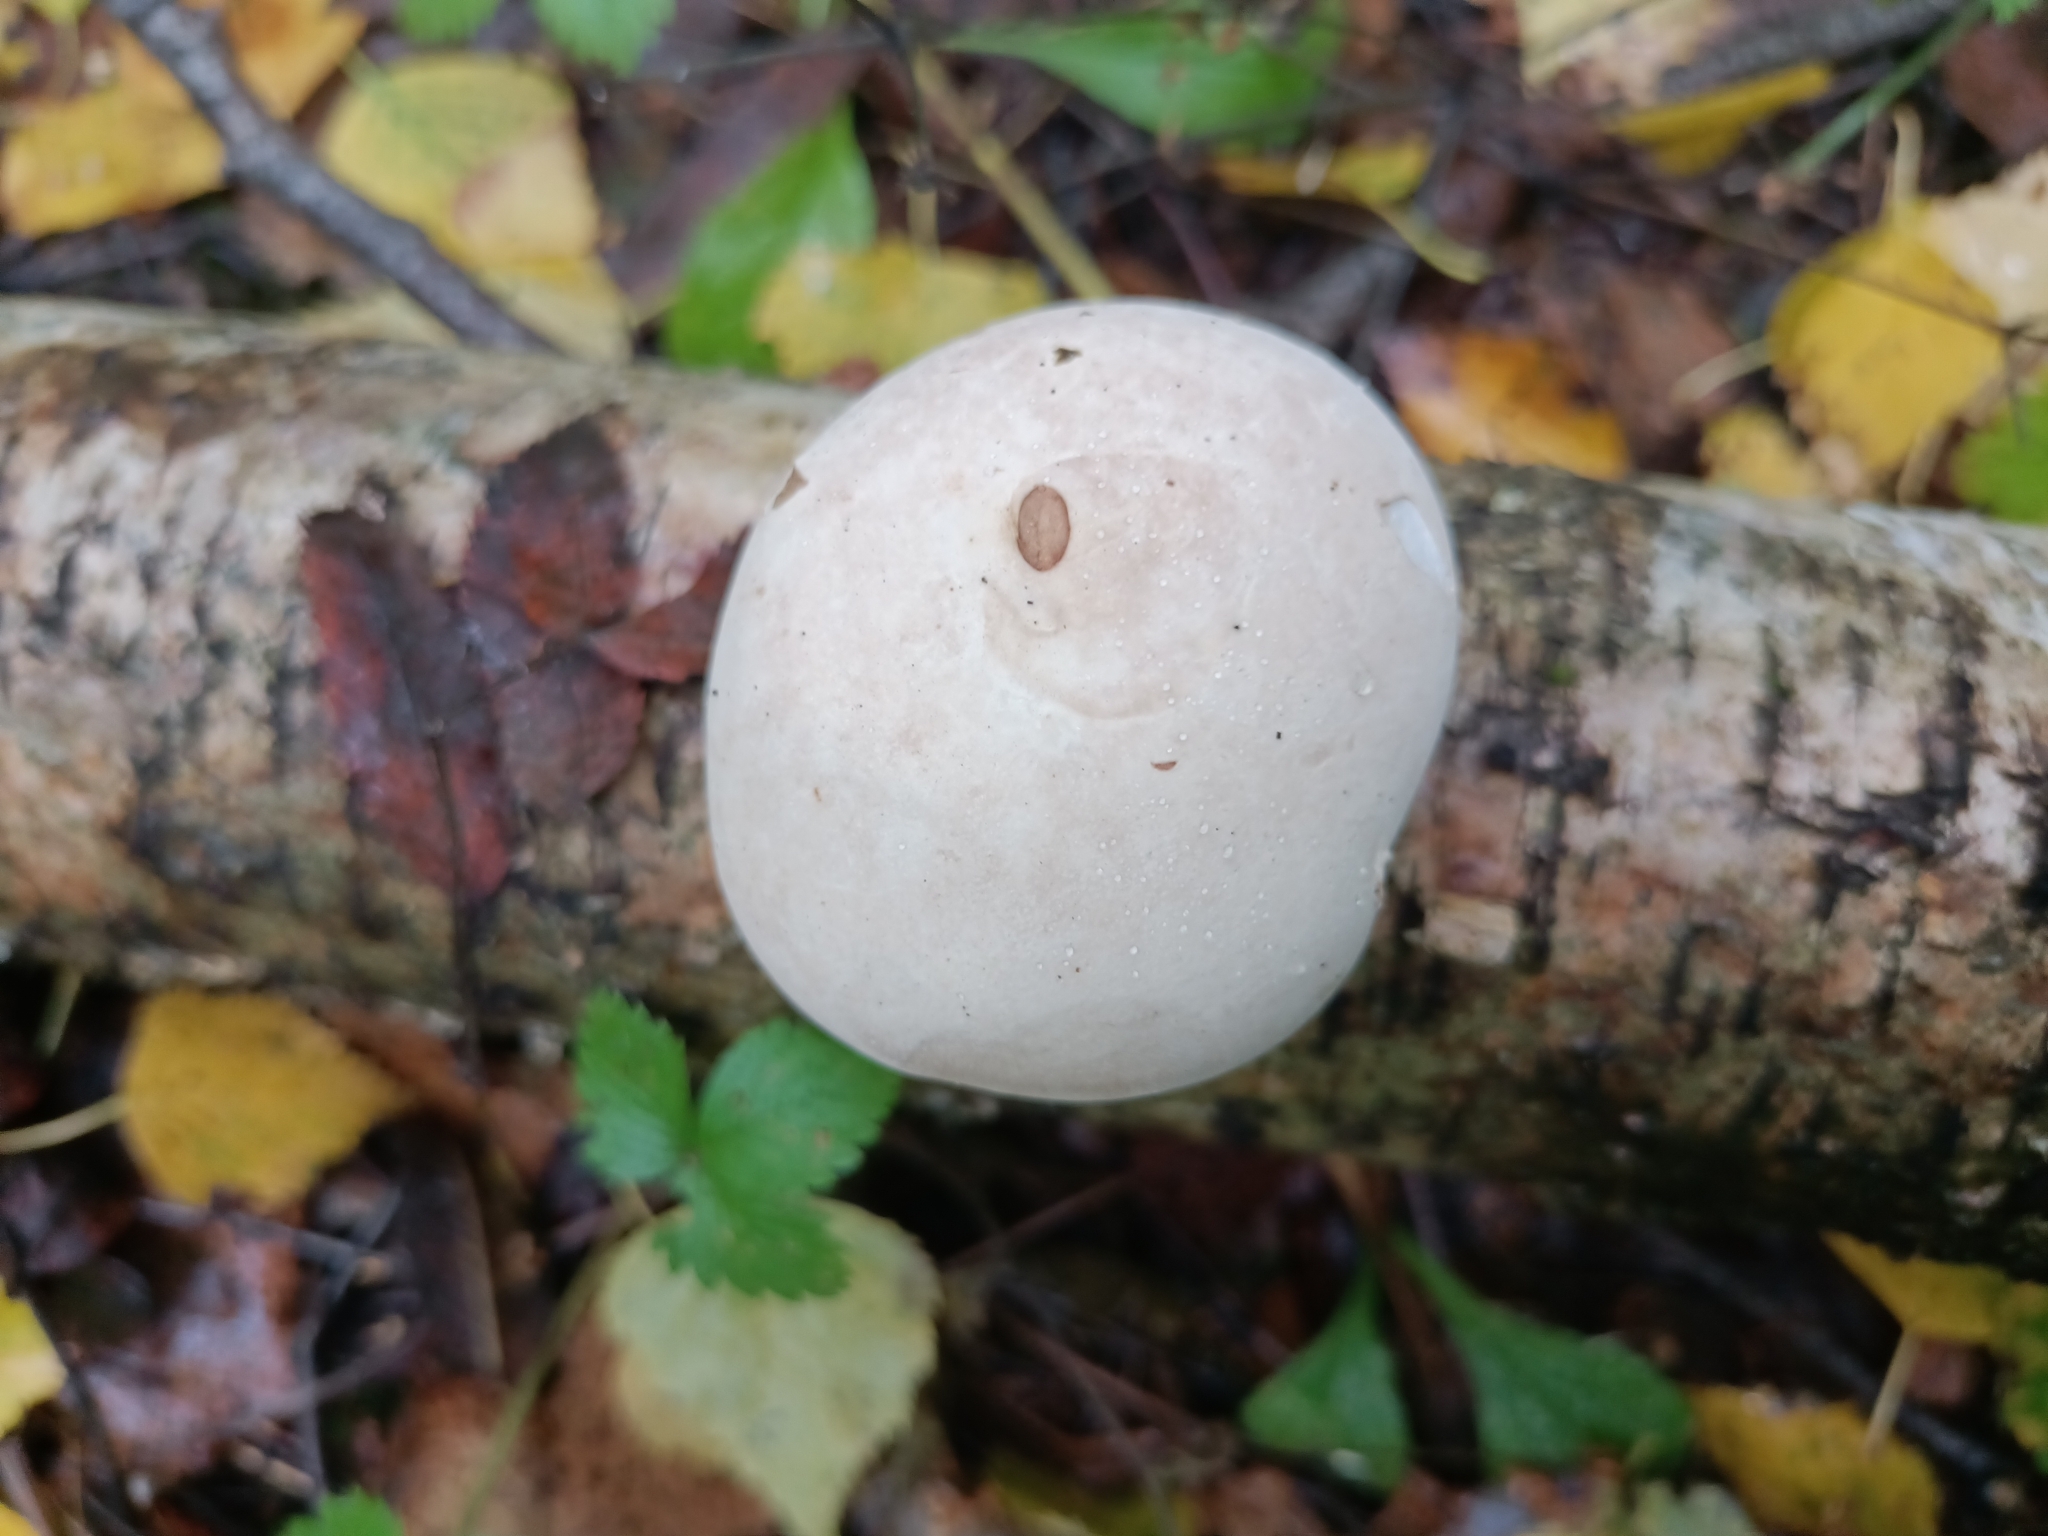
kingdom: Fungi
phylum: Basidiomycota
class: Agaricomycetes
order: Polyporales
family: Fomitopsidaceae
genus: Fomitopsis
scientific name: Fomitopsis betulina
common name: Birch polypore
